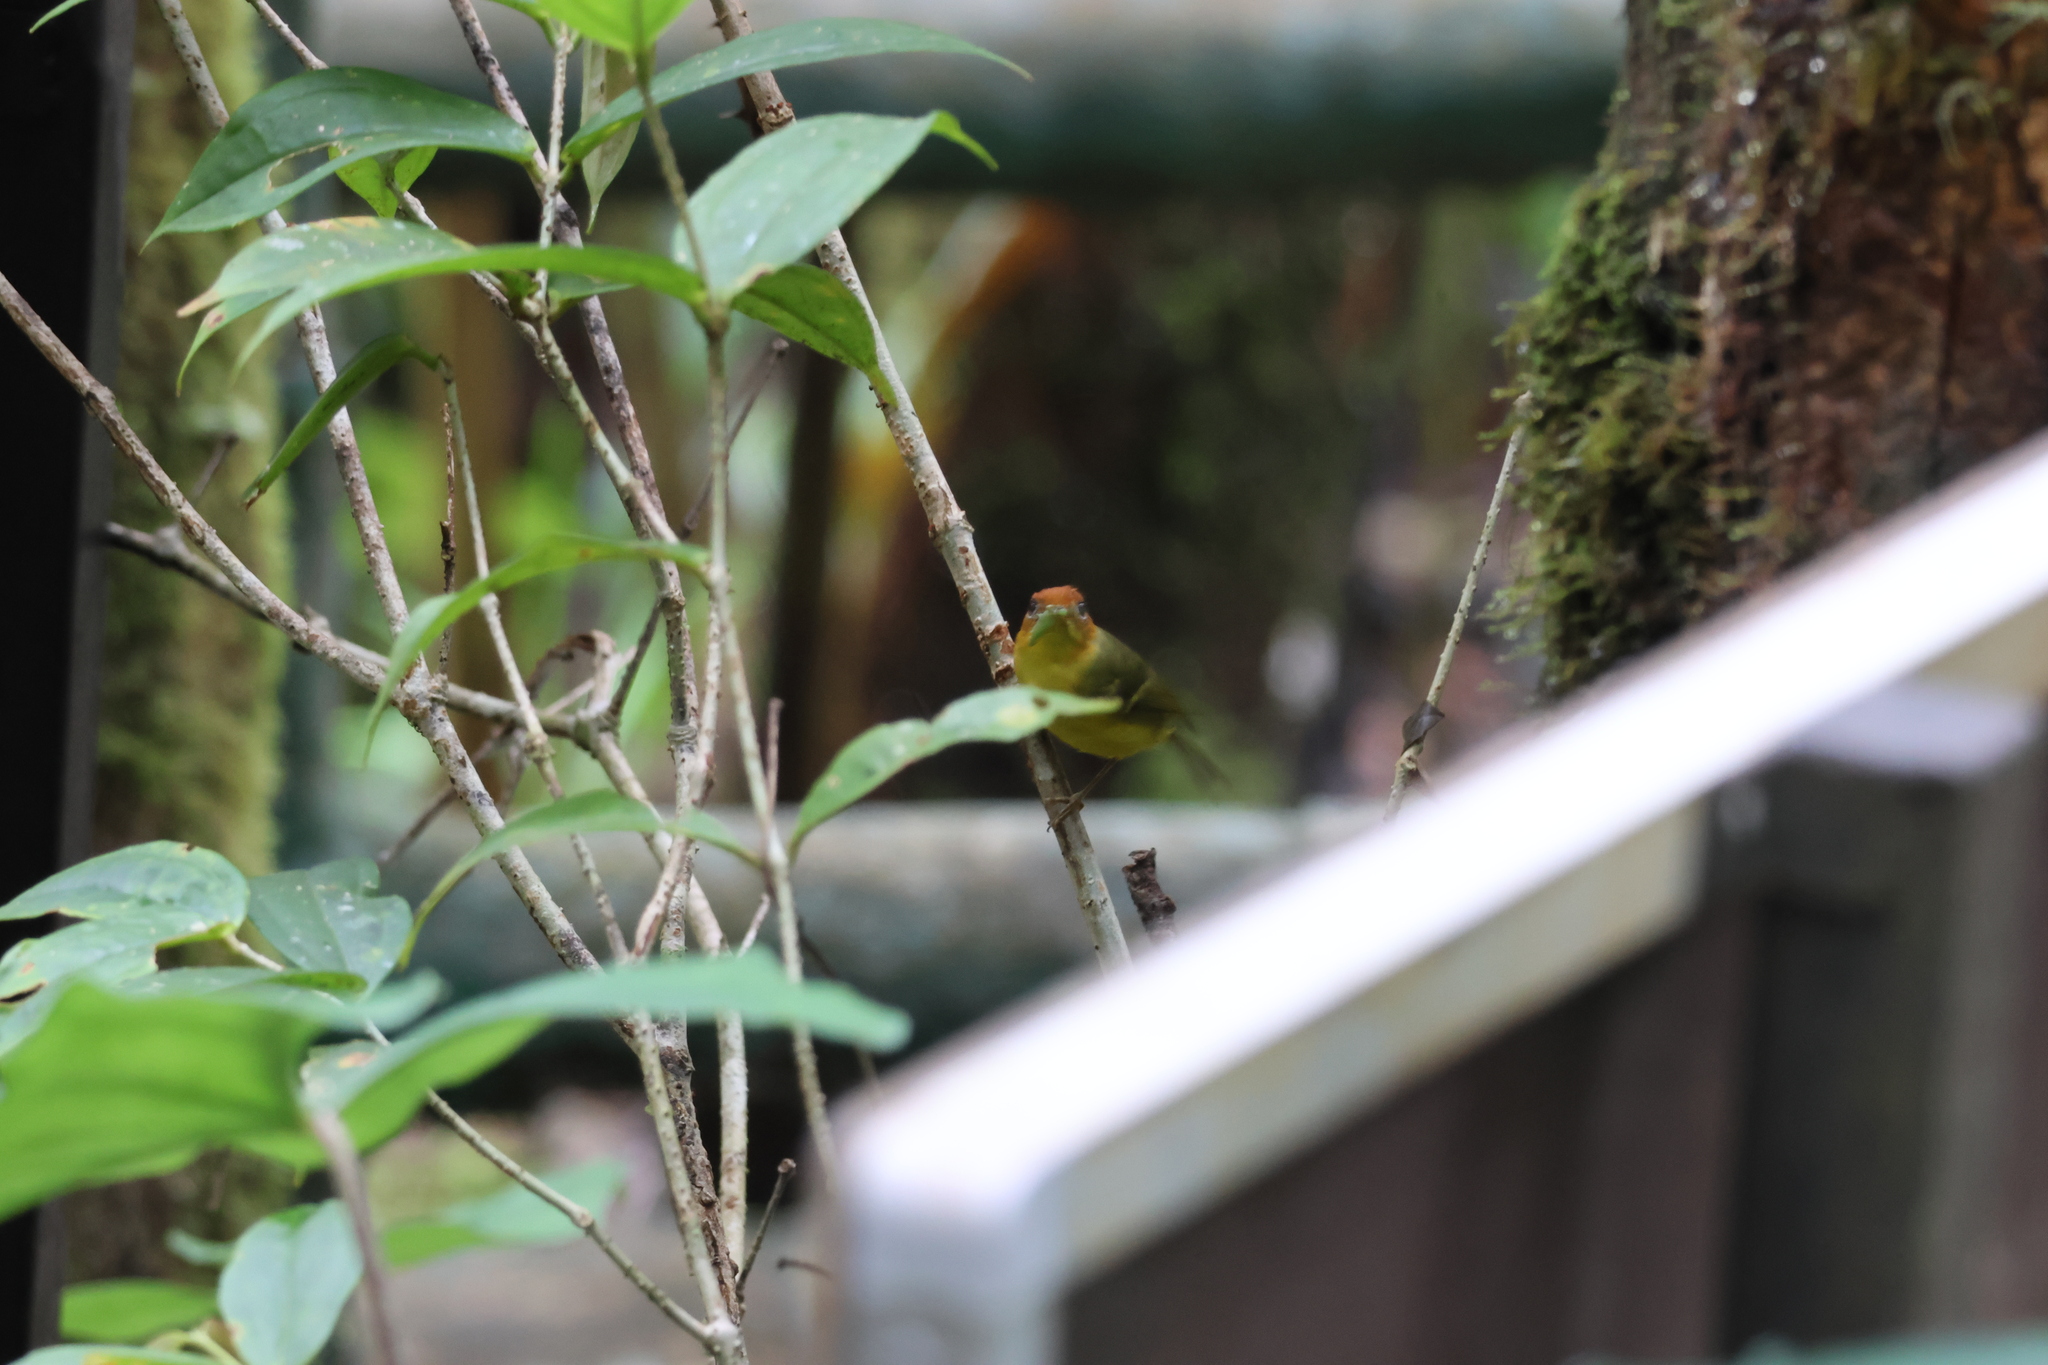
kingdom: Animalia
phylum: Chordata
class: Aves
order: Passeriformes
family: Phylloscopidae
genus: Seicercus
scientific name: Seicercus montis
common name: Yellow-breasted warbler
